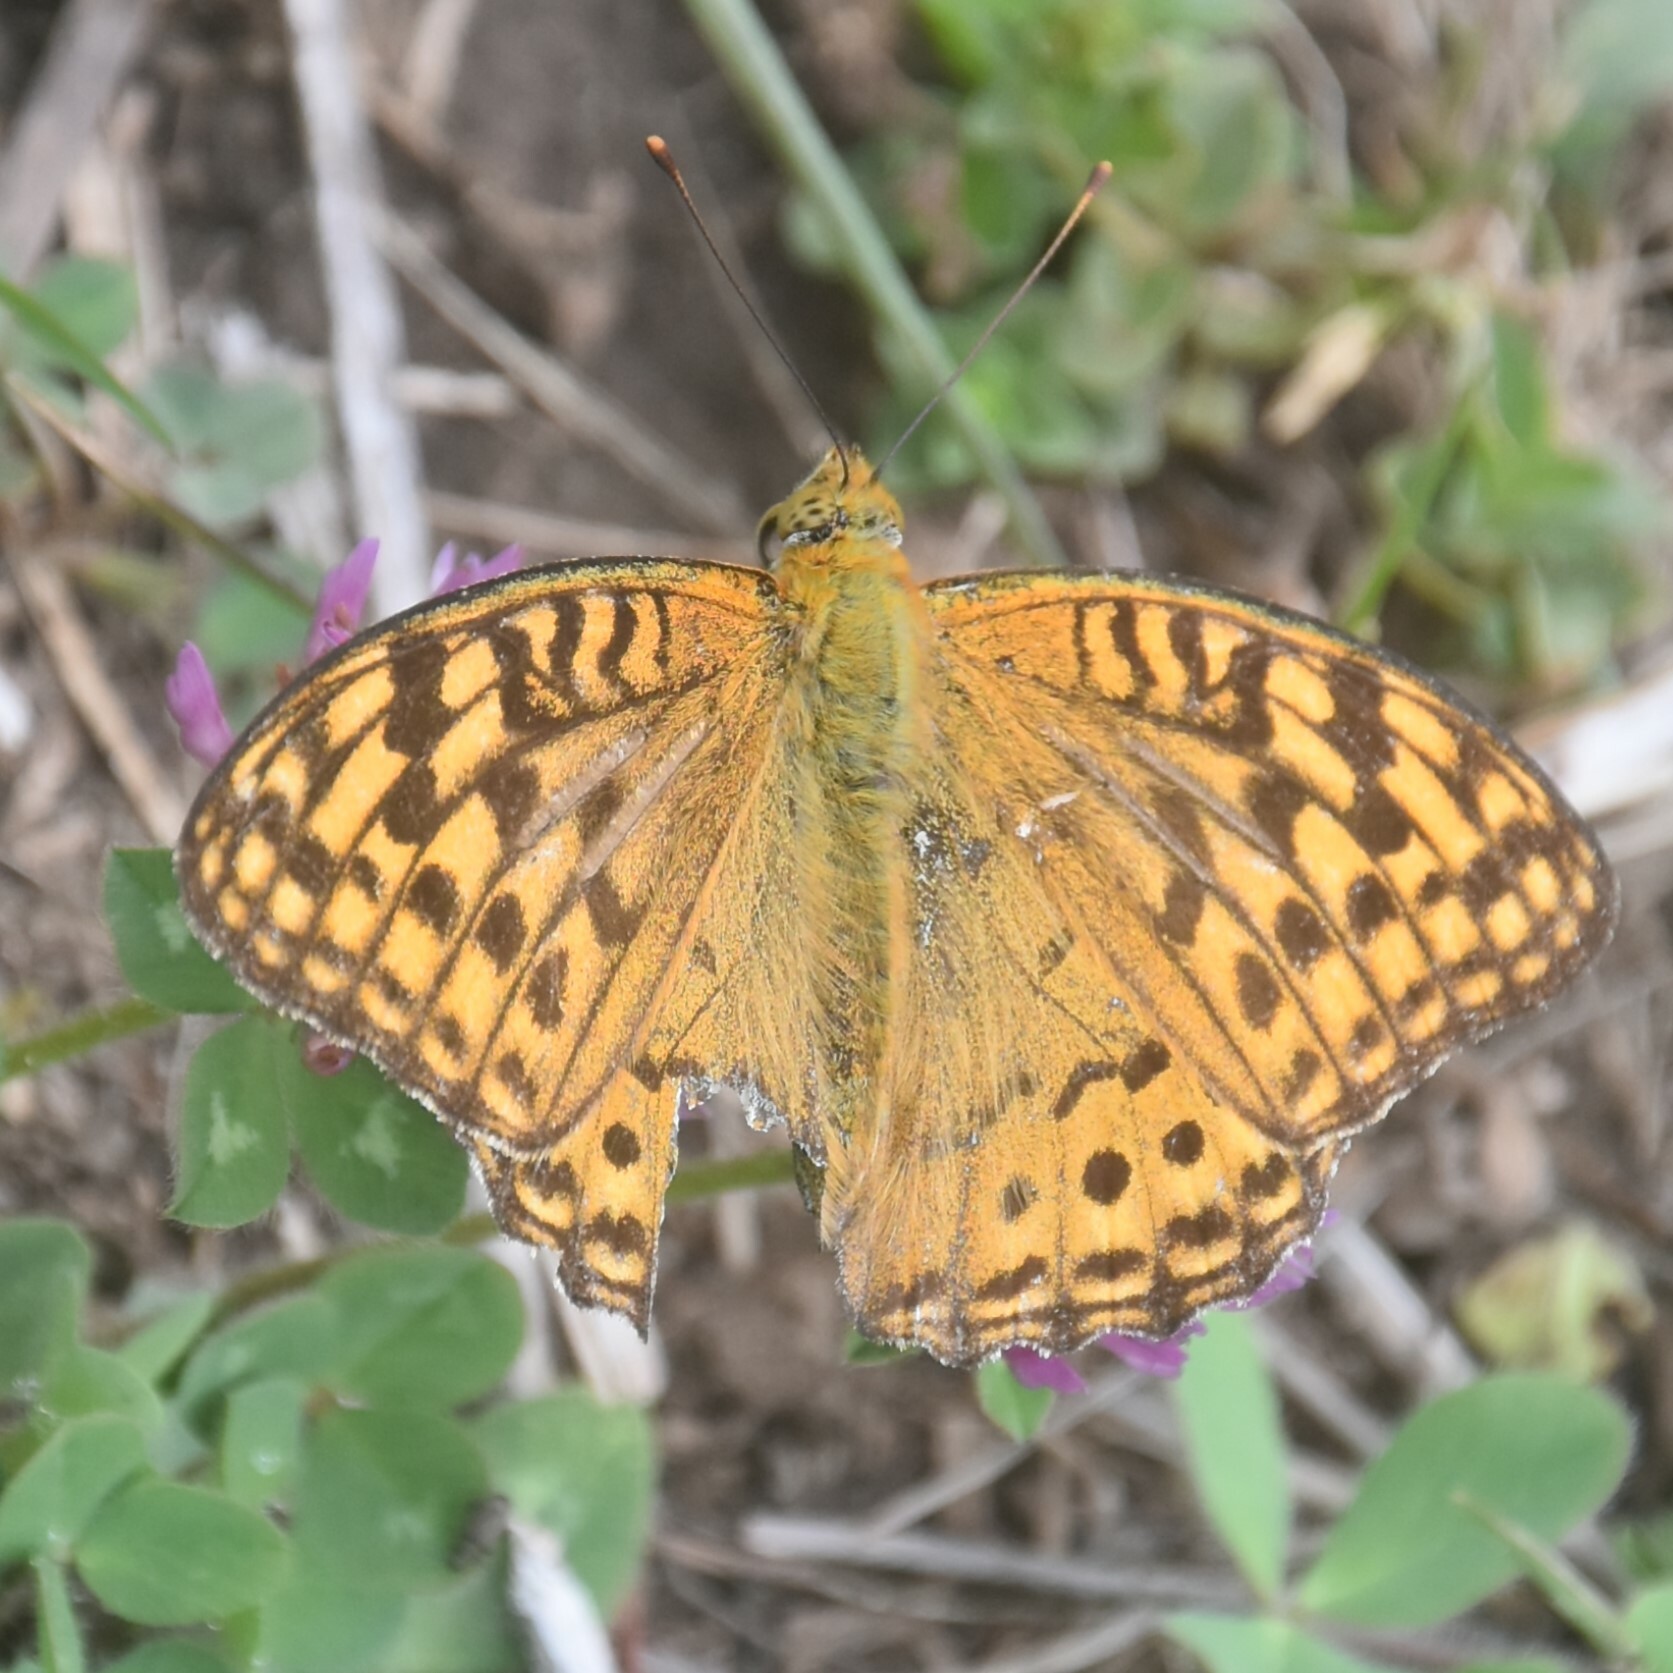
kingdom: Animalia
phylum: Arthropoda
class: Insecta
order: Lepidoptera
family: Nymphalidae
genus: Fabriciana
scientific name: Fabriciana kamala
